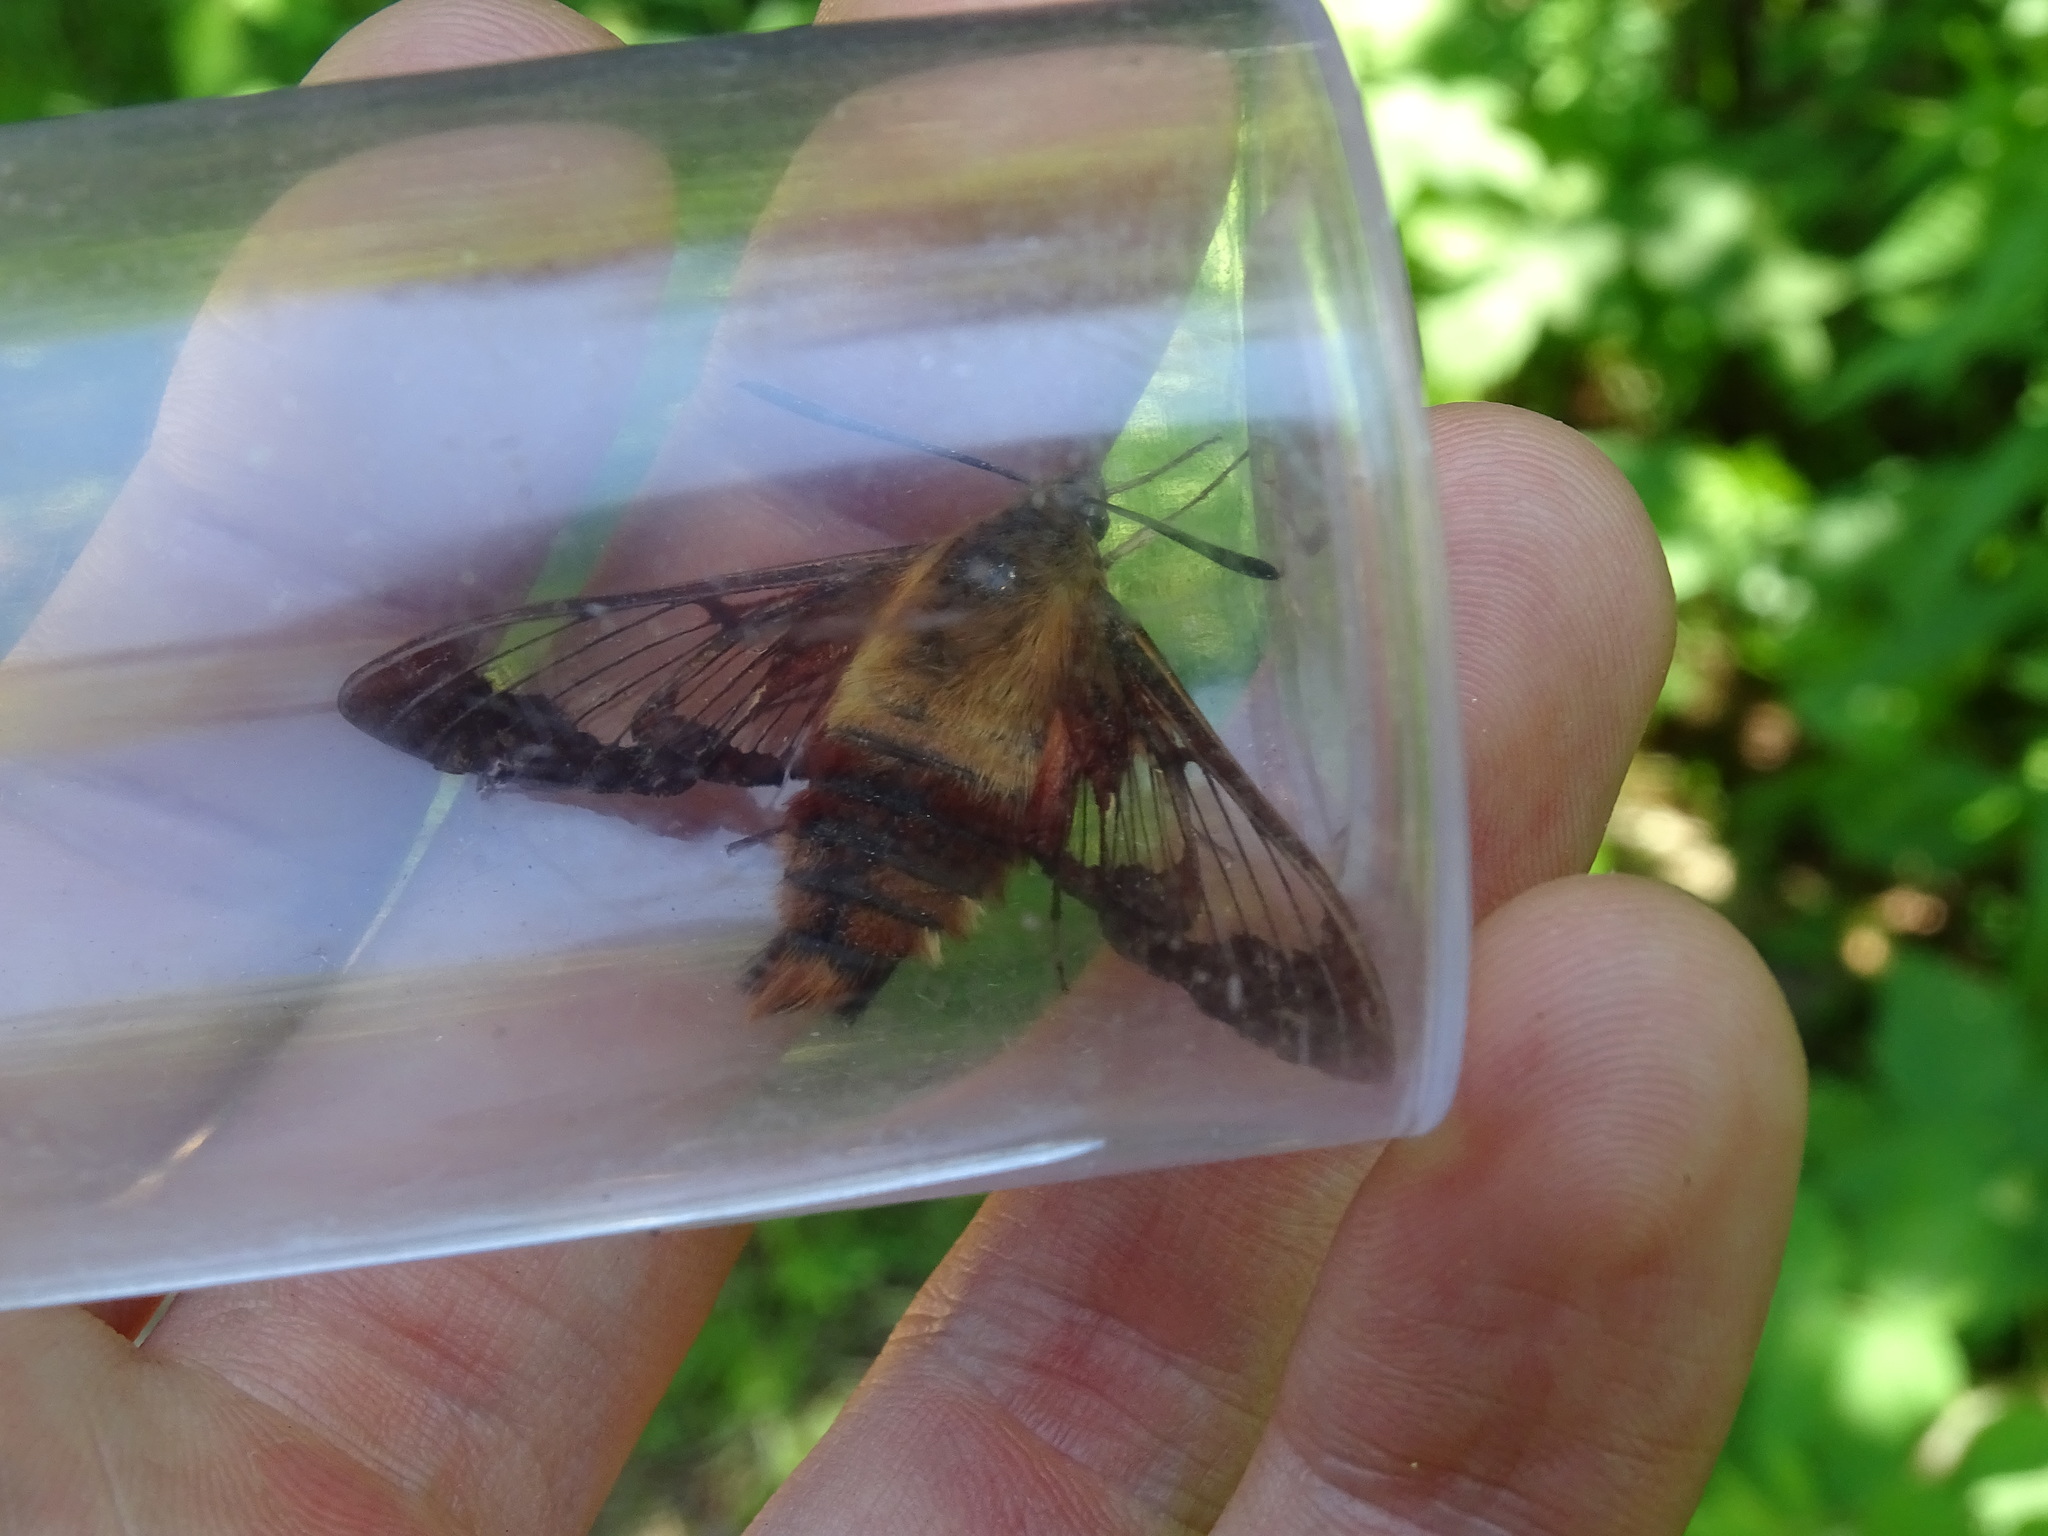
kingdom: Animalia
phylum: Arthropoda
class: Insecta
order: Lepidoptera
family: Sphingidae
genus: Hemaris
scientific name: Hemaris thysbe
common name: Common clear-wing
